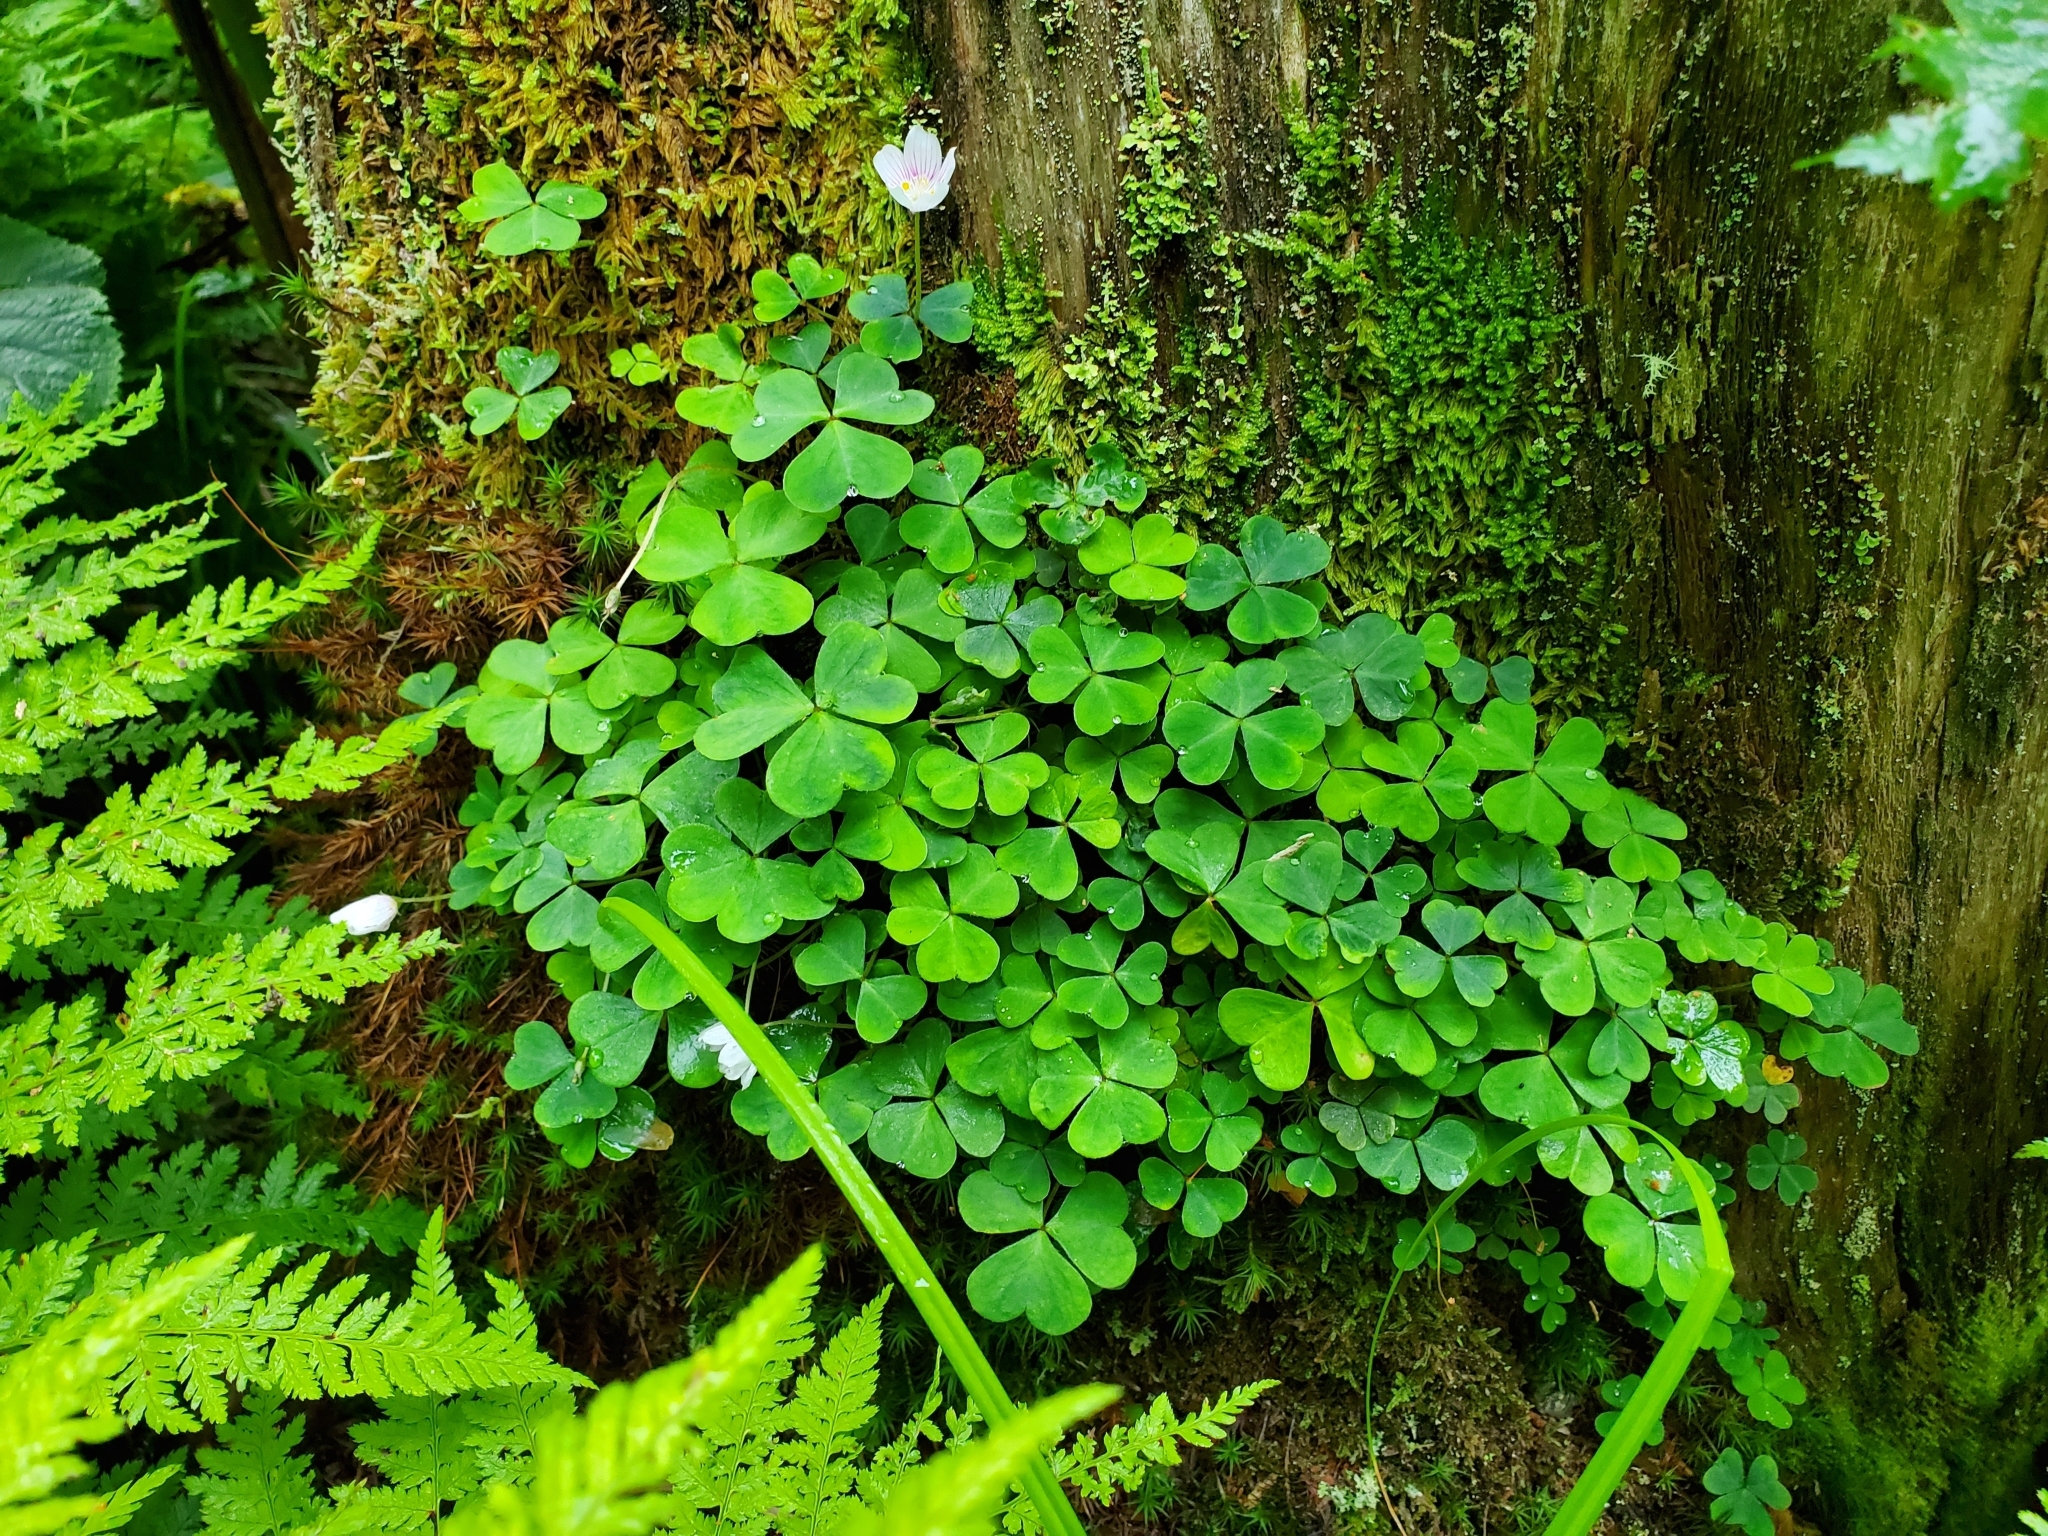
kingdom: Plantae
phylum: Tracheophyta
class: Magnoliopsida
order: Oxalidales
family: Oxalidaceae
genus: Oxalis
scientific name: Oxalis montana
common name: American wood-sorrel
